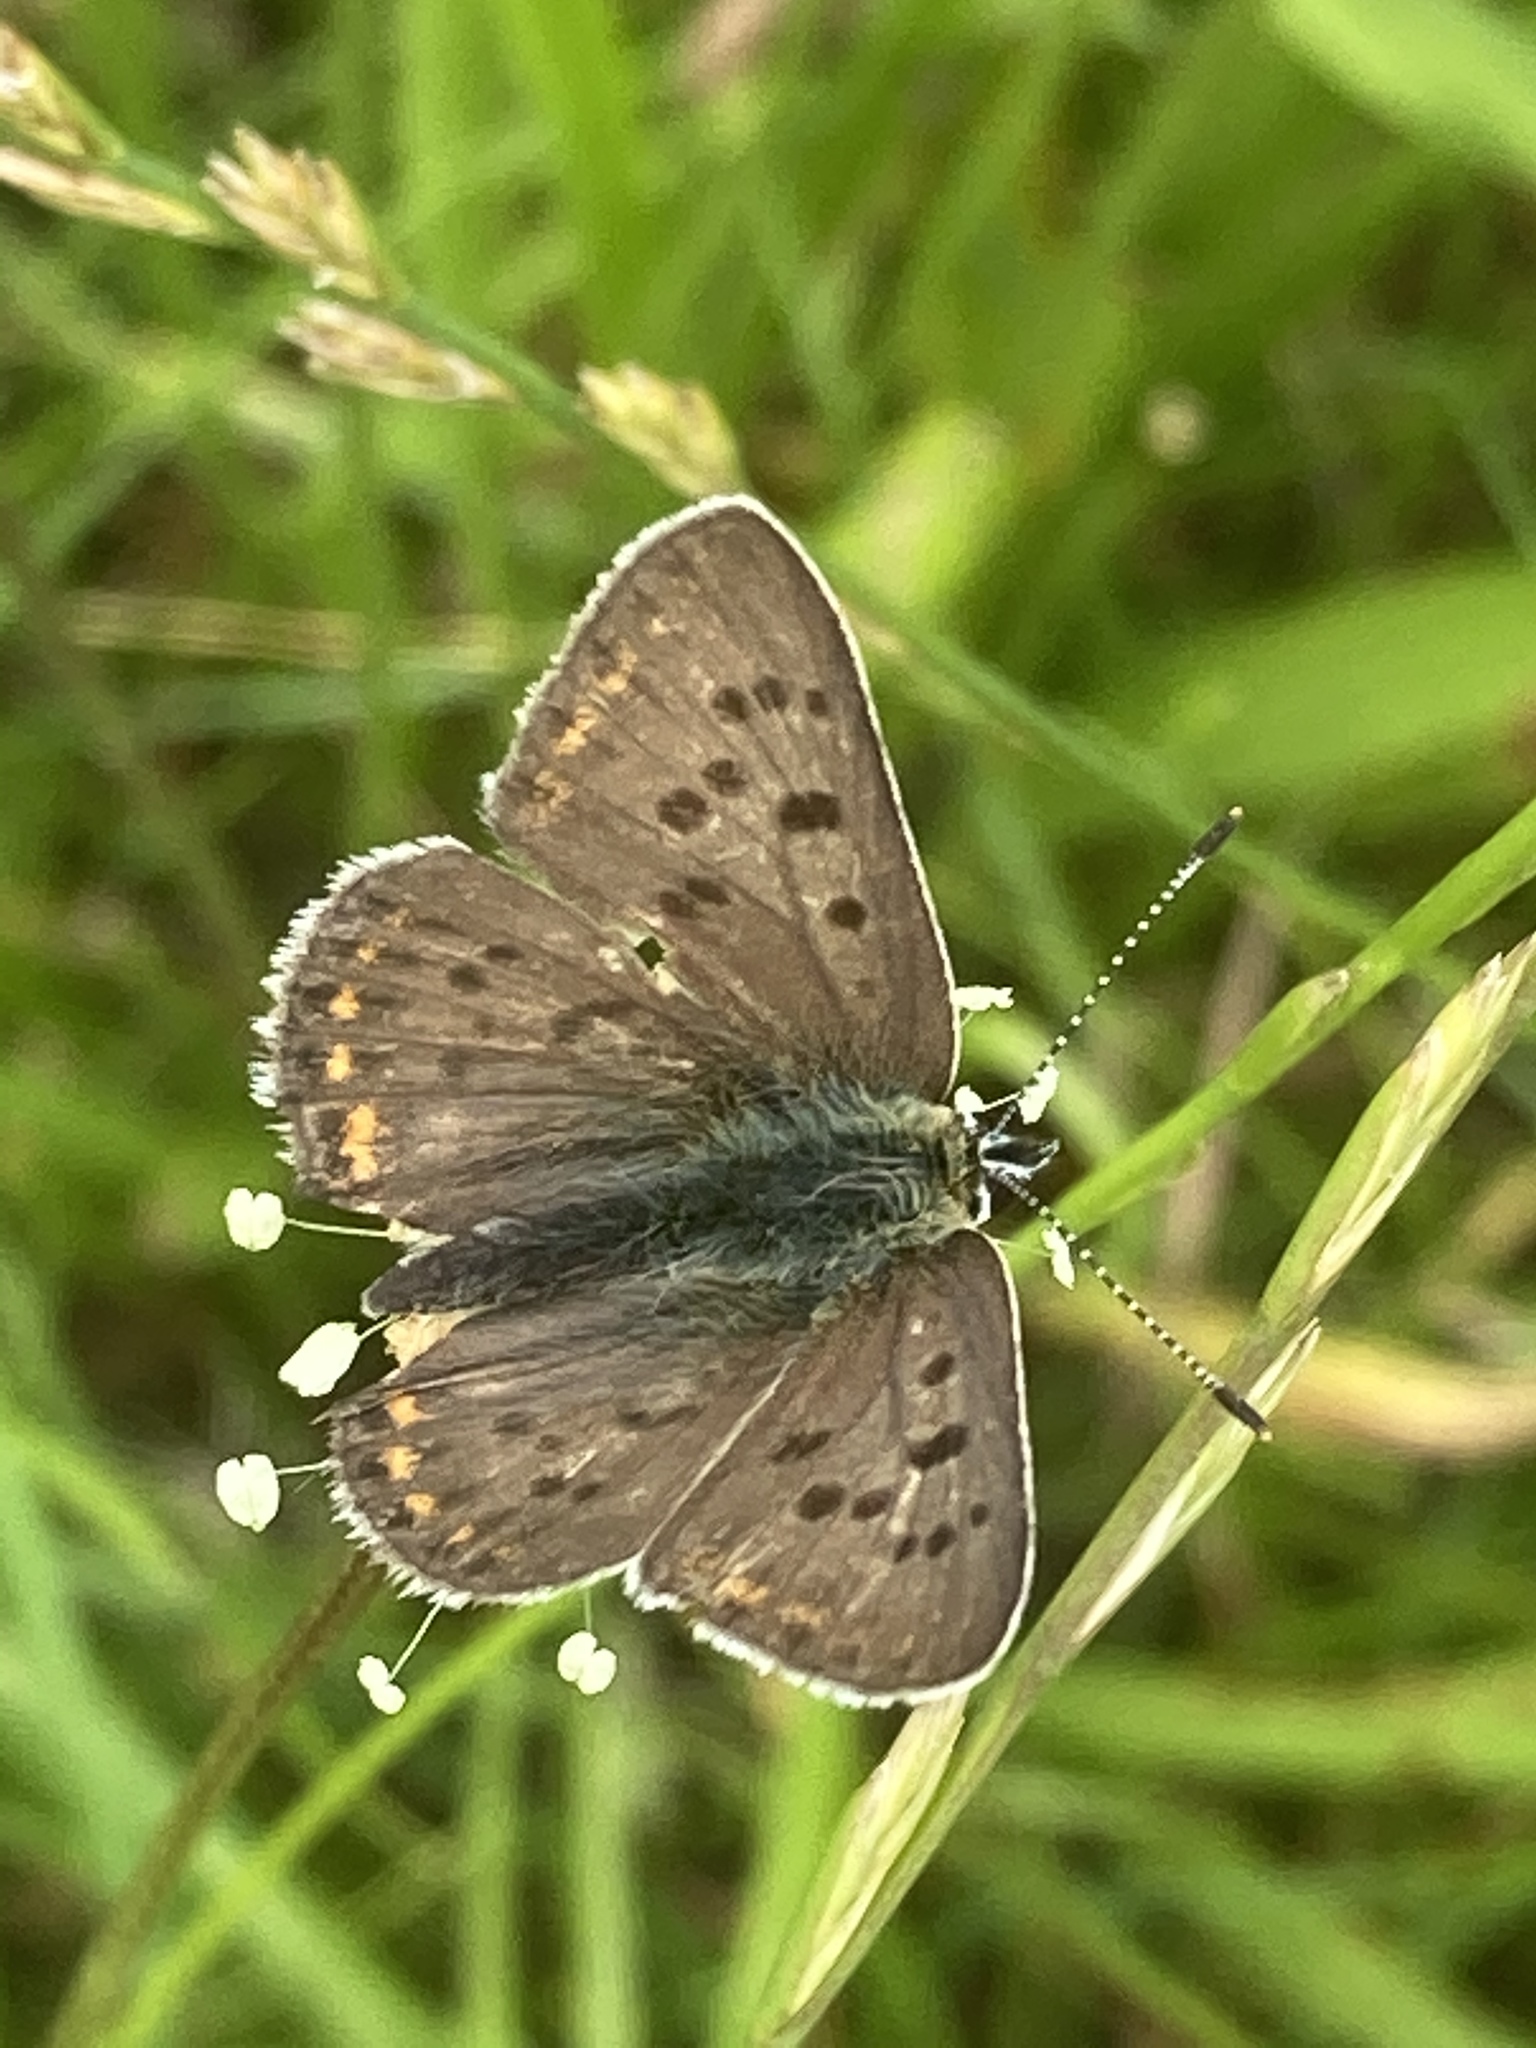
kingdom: Animalia
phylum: Arthropoda
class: Insecta
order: Lepidoptera
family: Lycaenidae
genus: Loweia
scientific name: Loweia tityrus
